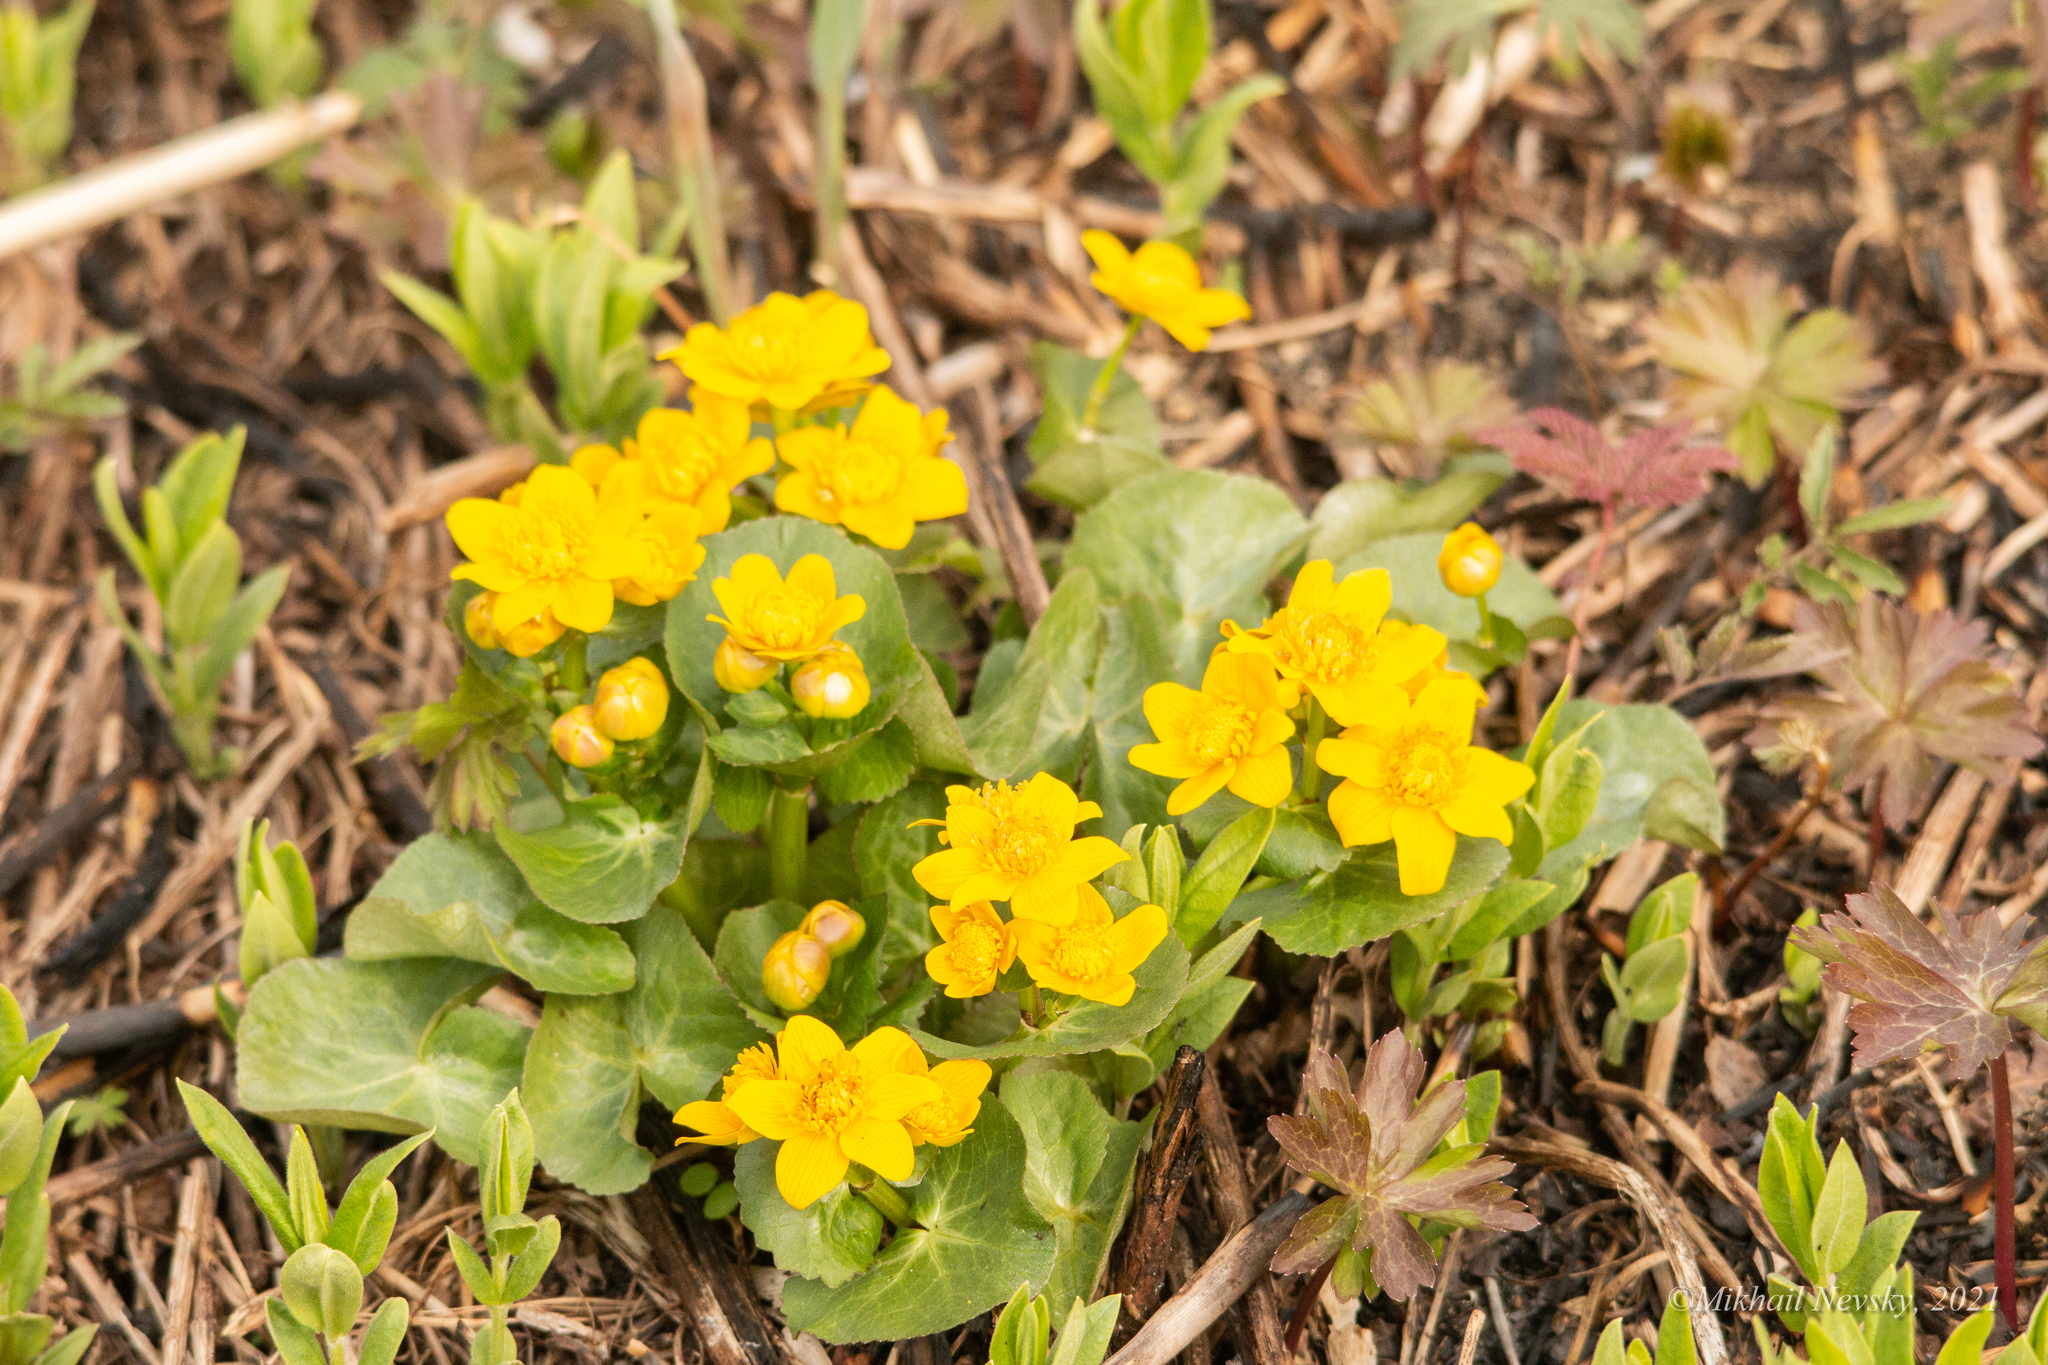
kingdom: Plantae
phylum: Tracheophyta
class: Magnoliopsida
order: Ranunculales
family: Ranunculaceae
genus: Caltha
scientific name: Caltha palustris
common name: Marsh marigold
